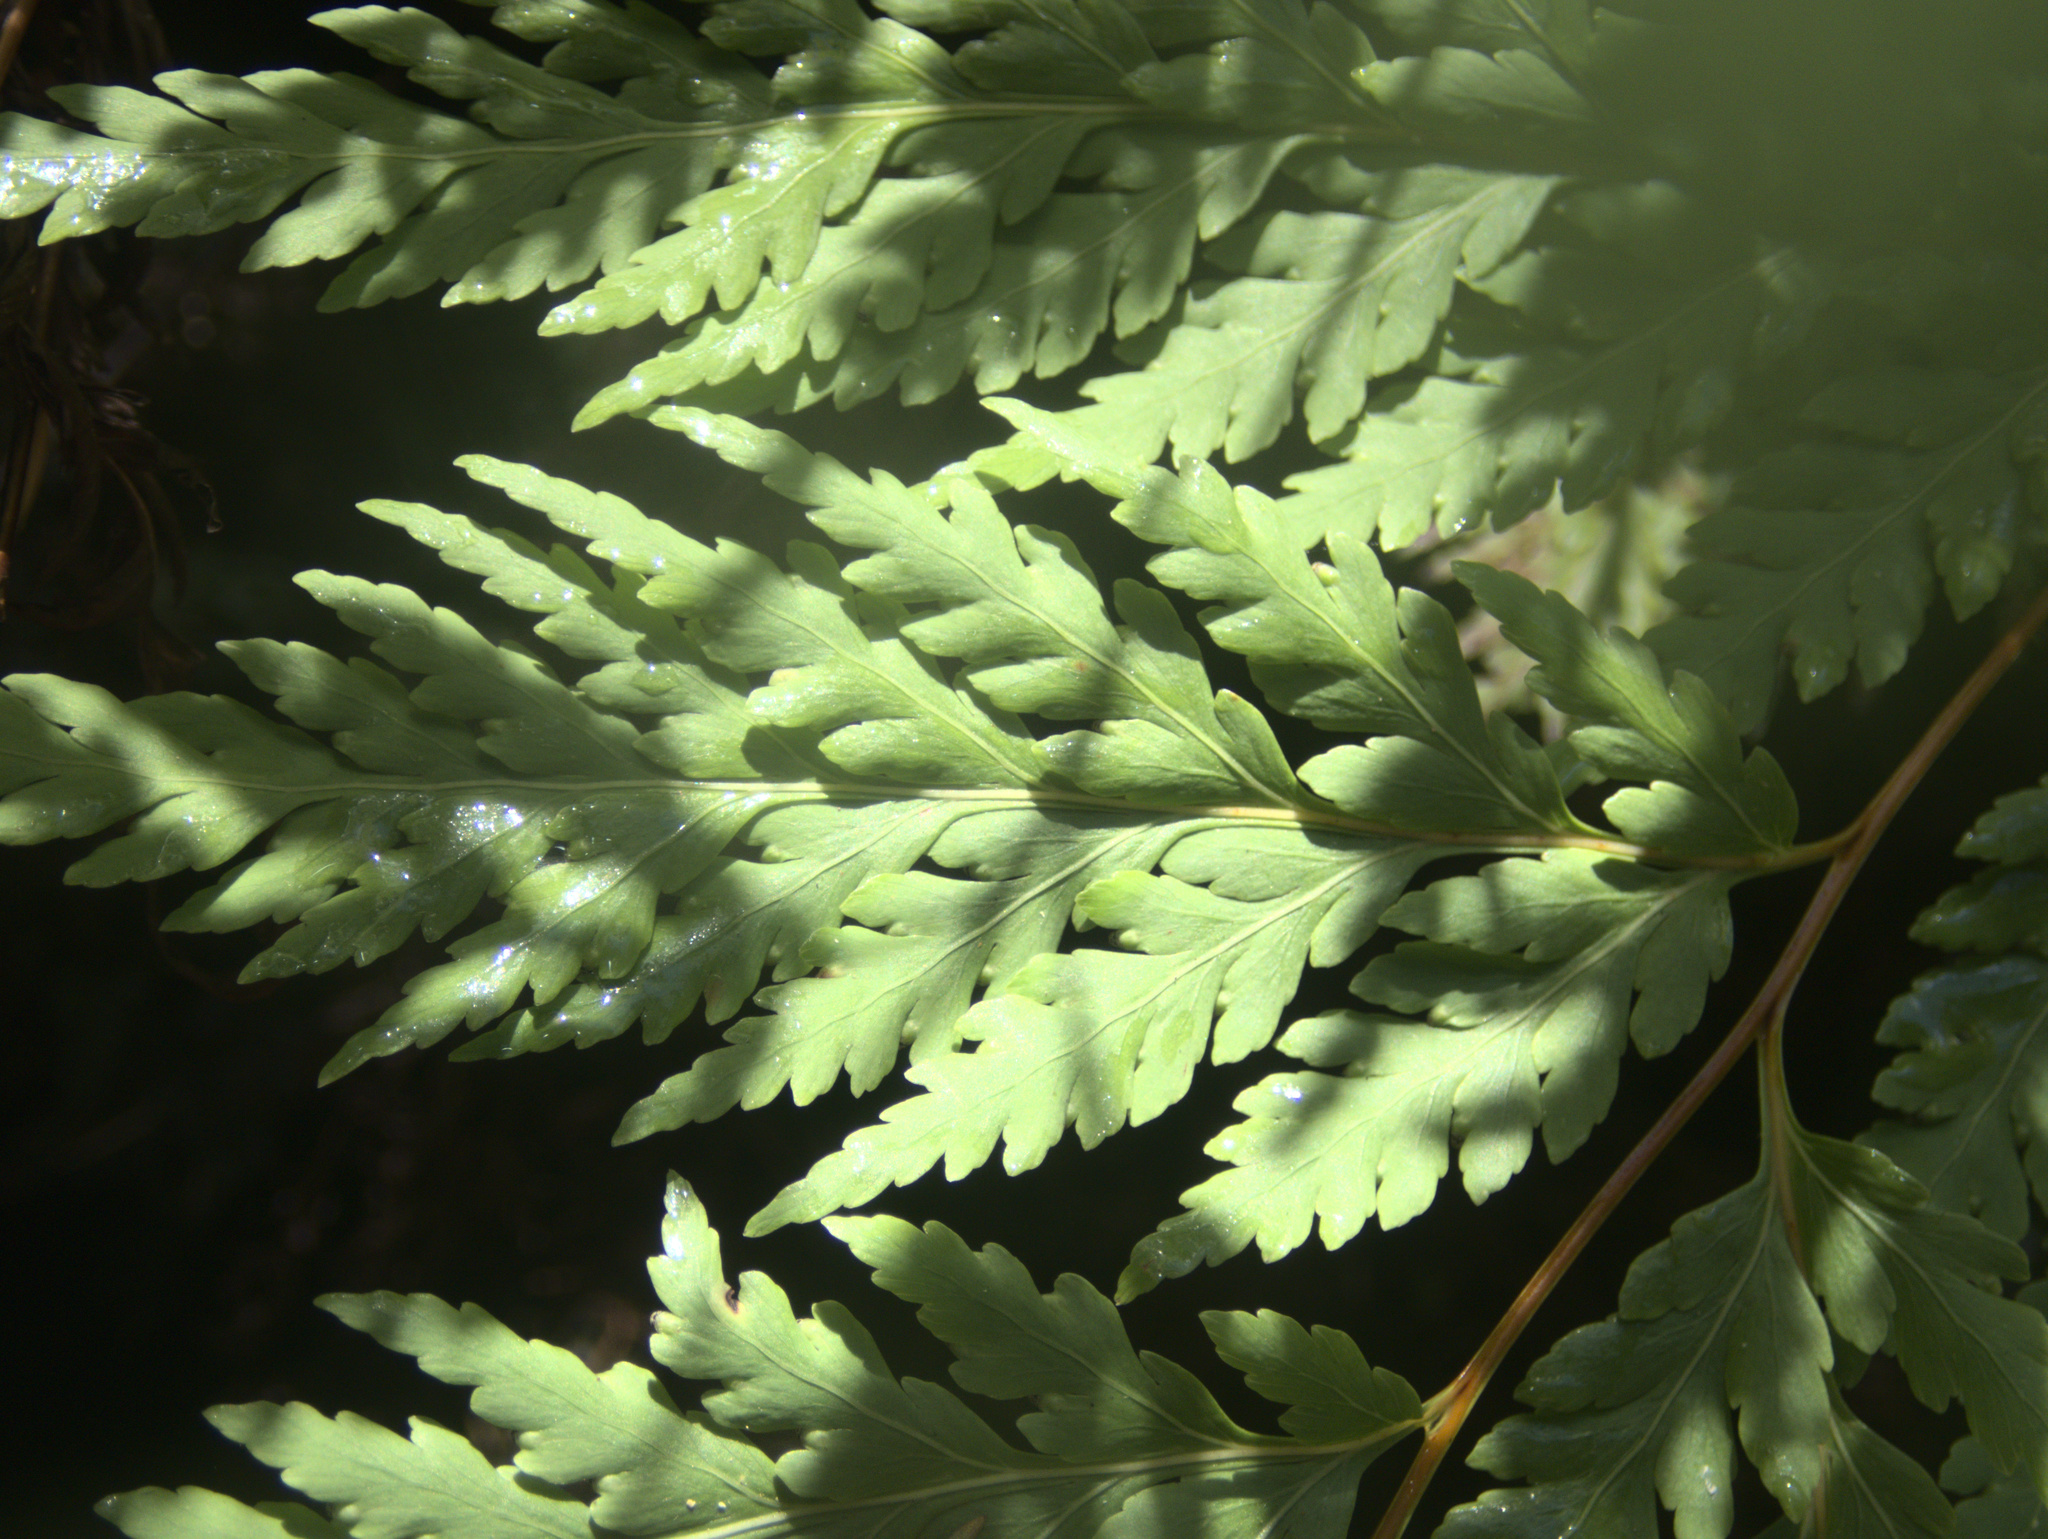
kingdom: Plantae
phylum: Tracheophyta
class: Polypodiopsida
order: Cyatheales
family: Loxsomataceae
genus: Loxsoma
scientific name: Loxsoma cunninghamii
